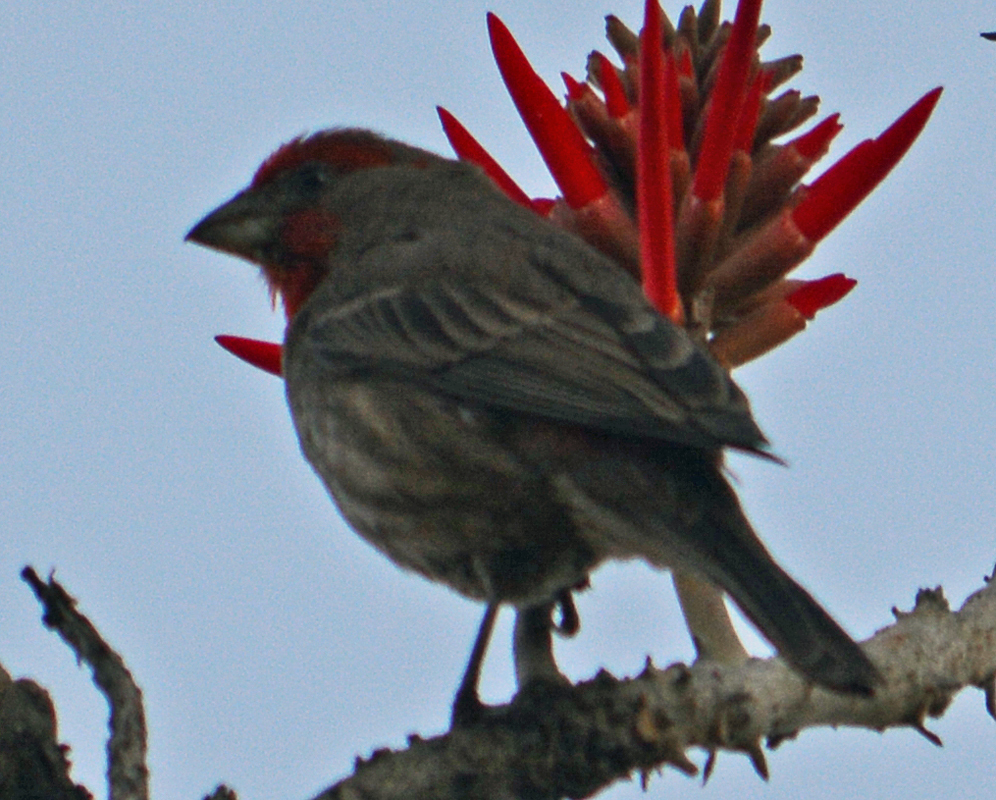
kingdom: Animalia
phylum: Chordata
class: Aves
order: Passeriformes
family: Fringillidae
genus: Haemorhous
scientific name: Haemorhous mexicanus
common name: House finch
